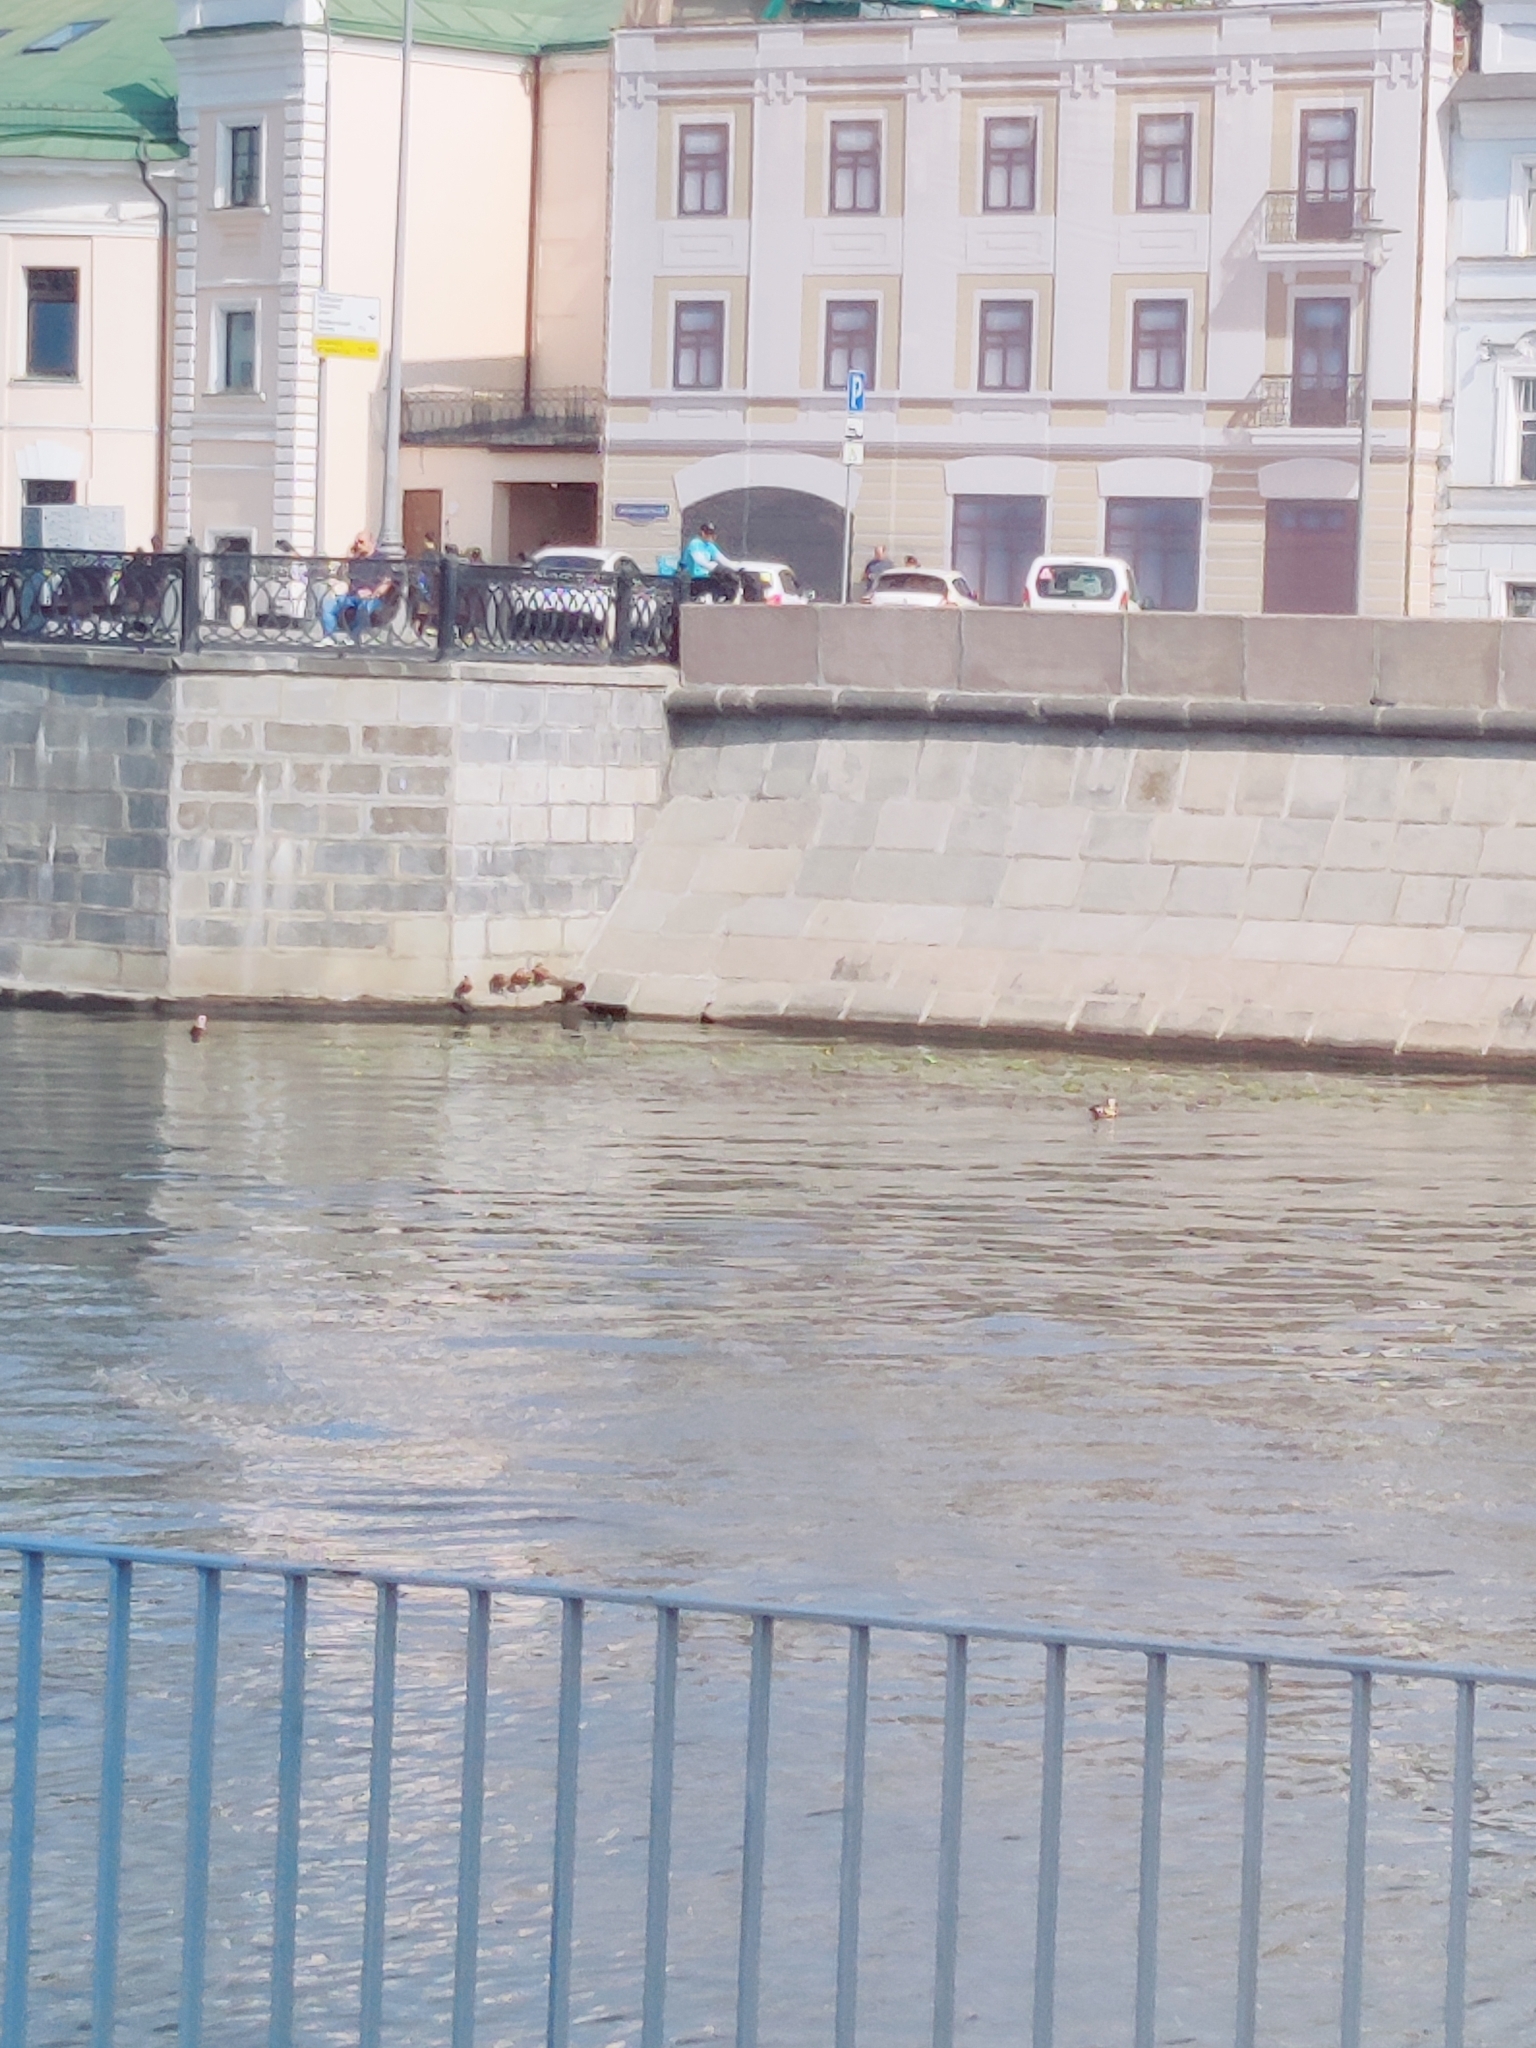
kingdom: Animalia
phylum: Chordata
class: Aves
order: Anseriformes
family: Anatidae
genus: Tadorna
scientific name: Tadorna ferruginea
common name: Ruddy shelduck
